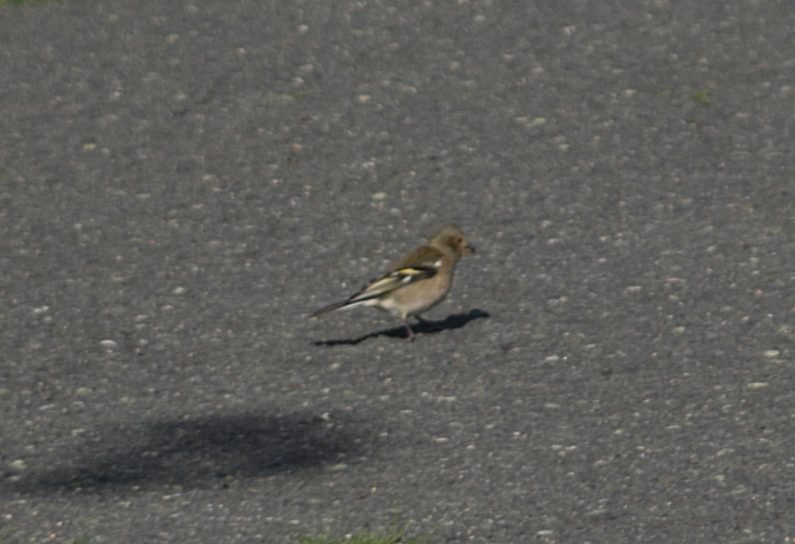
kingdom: Animalia
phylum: Chordata
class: Aves
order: Passeriformes
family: Fringillidae
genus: Fringilla
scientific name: Fringilla coelebs
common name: Common chaffinch
